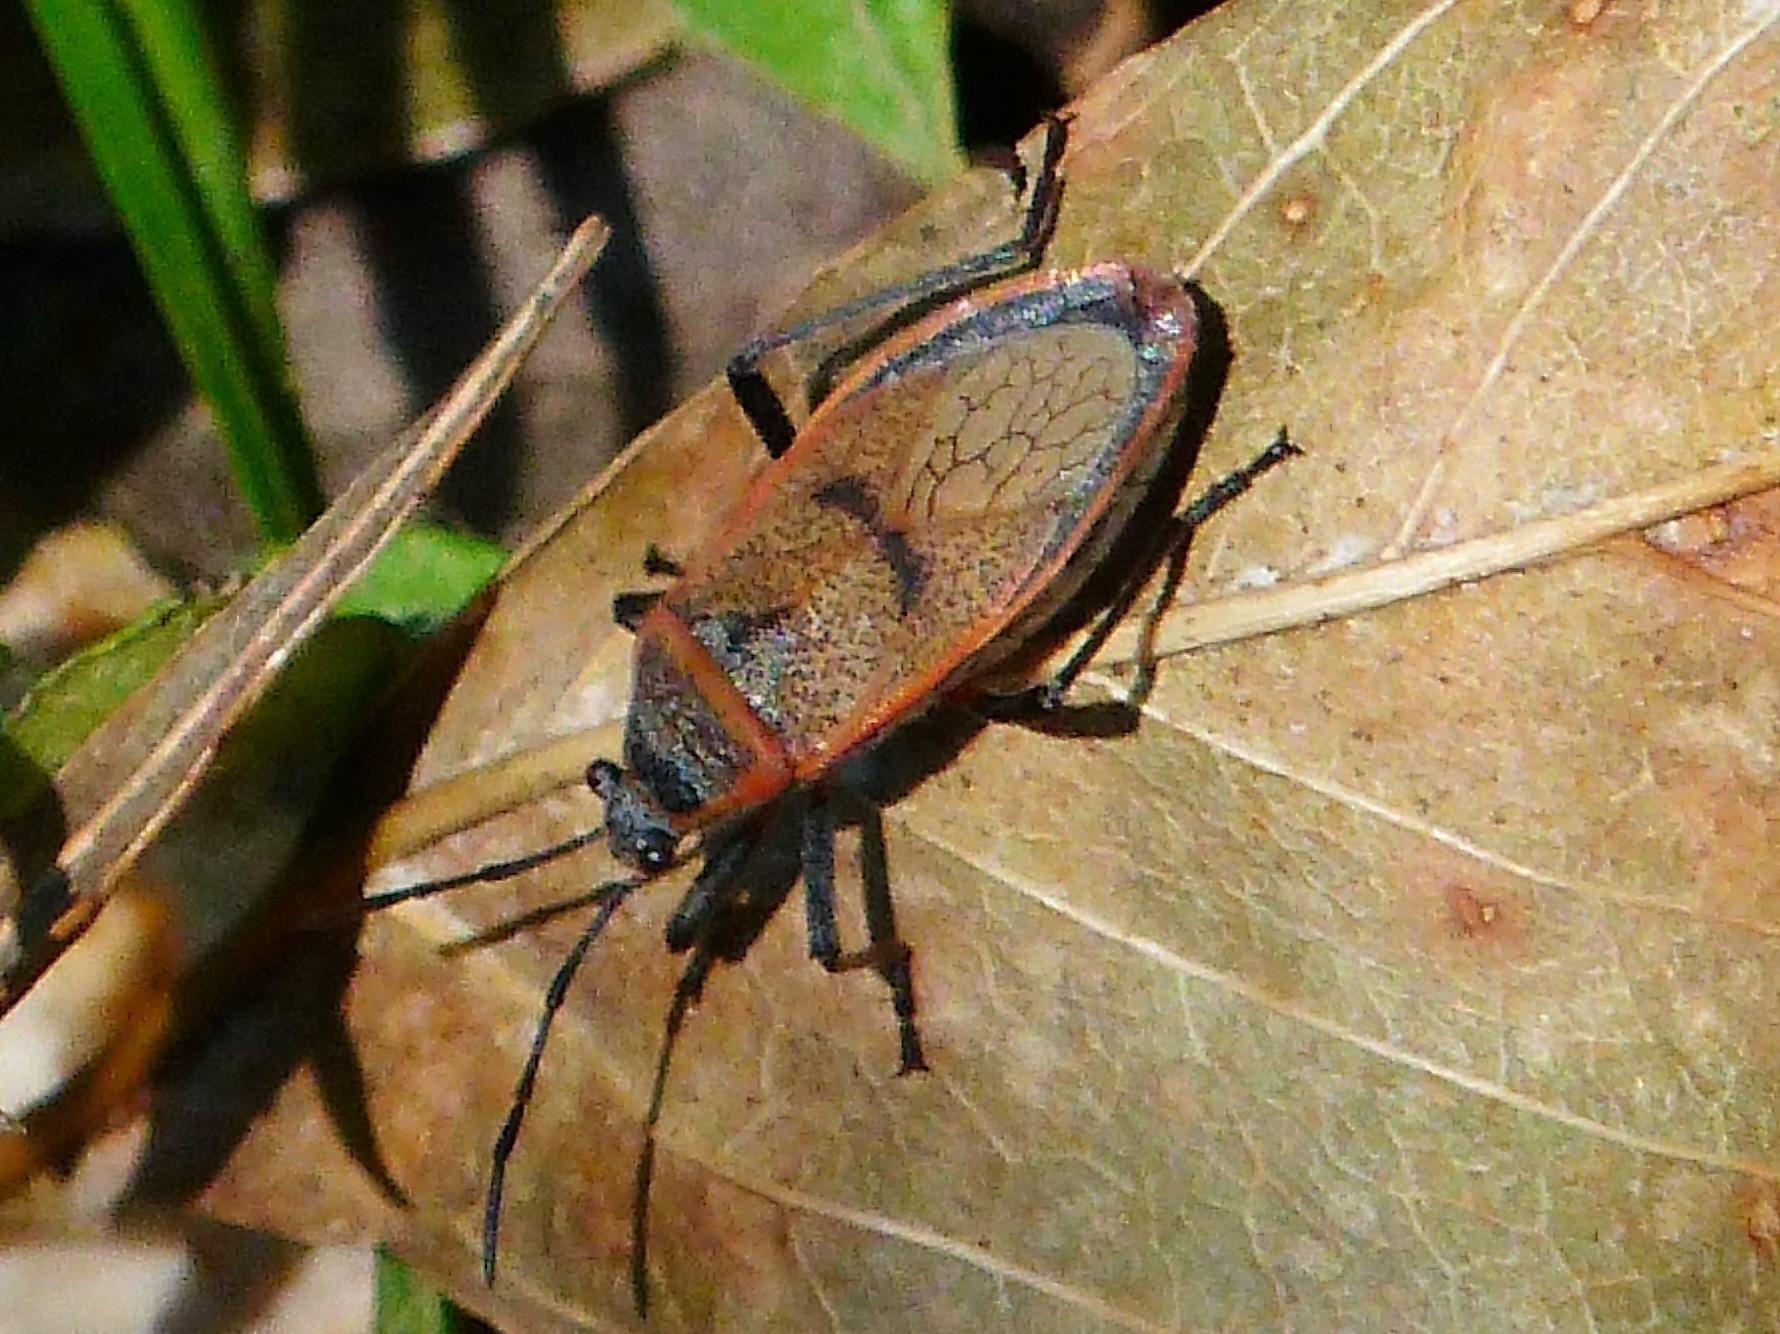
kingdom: Animalia
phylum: Arthropoda
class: Insecta
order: Hemiptera
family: Largidae
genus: Largus
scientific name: Largus maculatus
